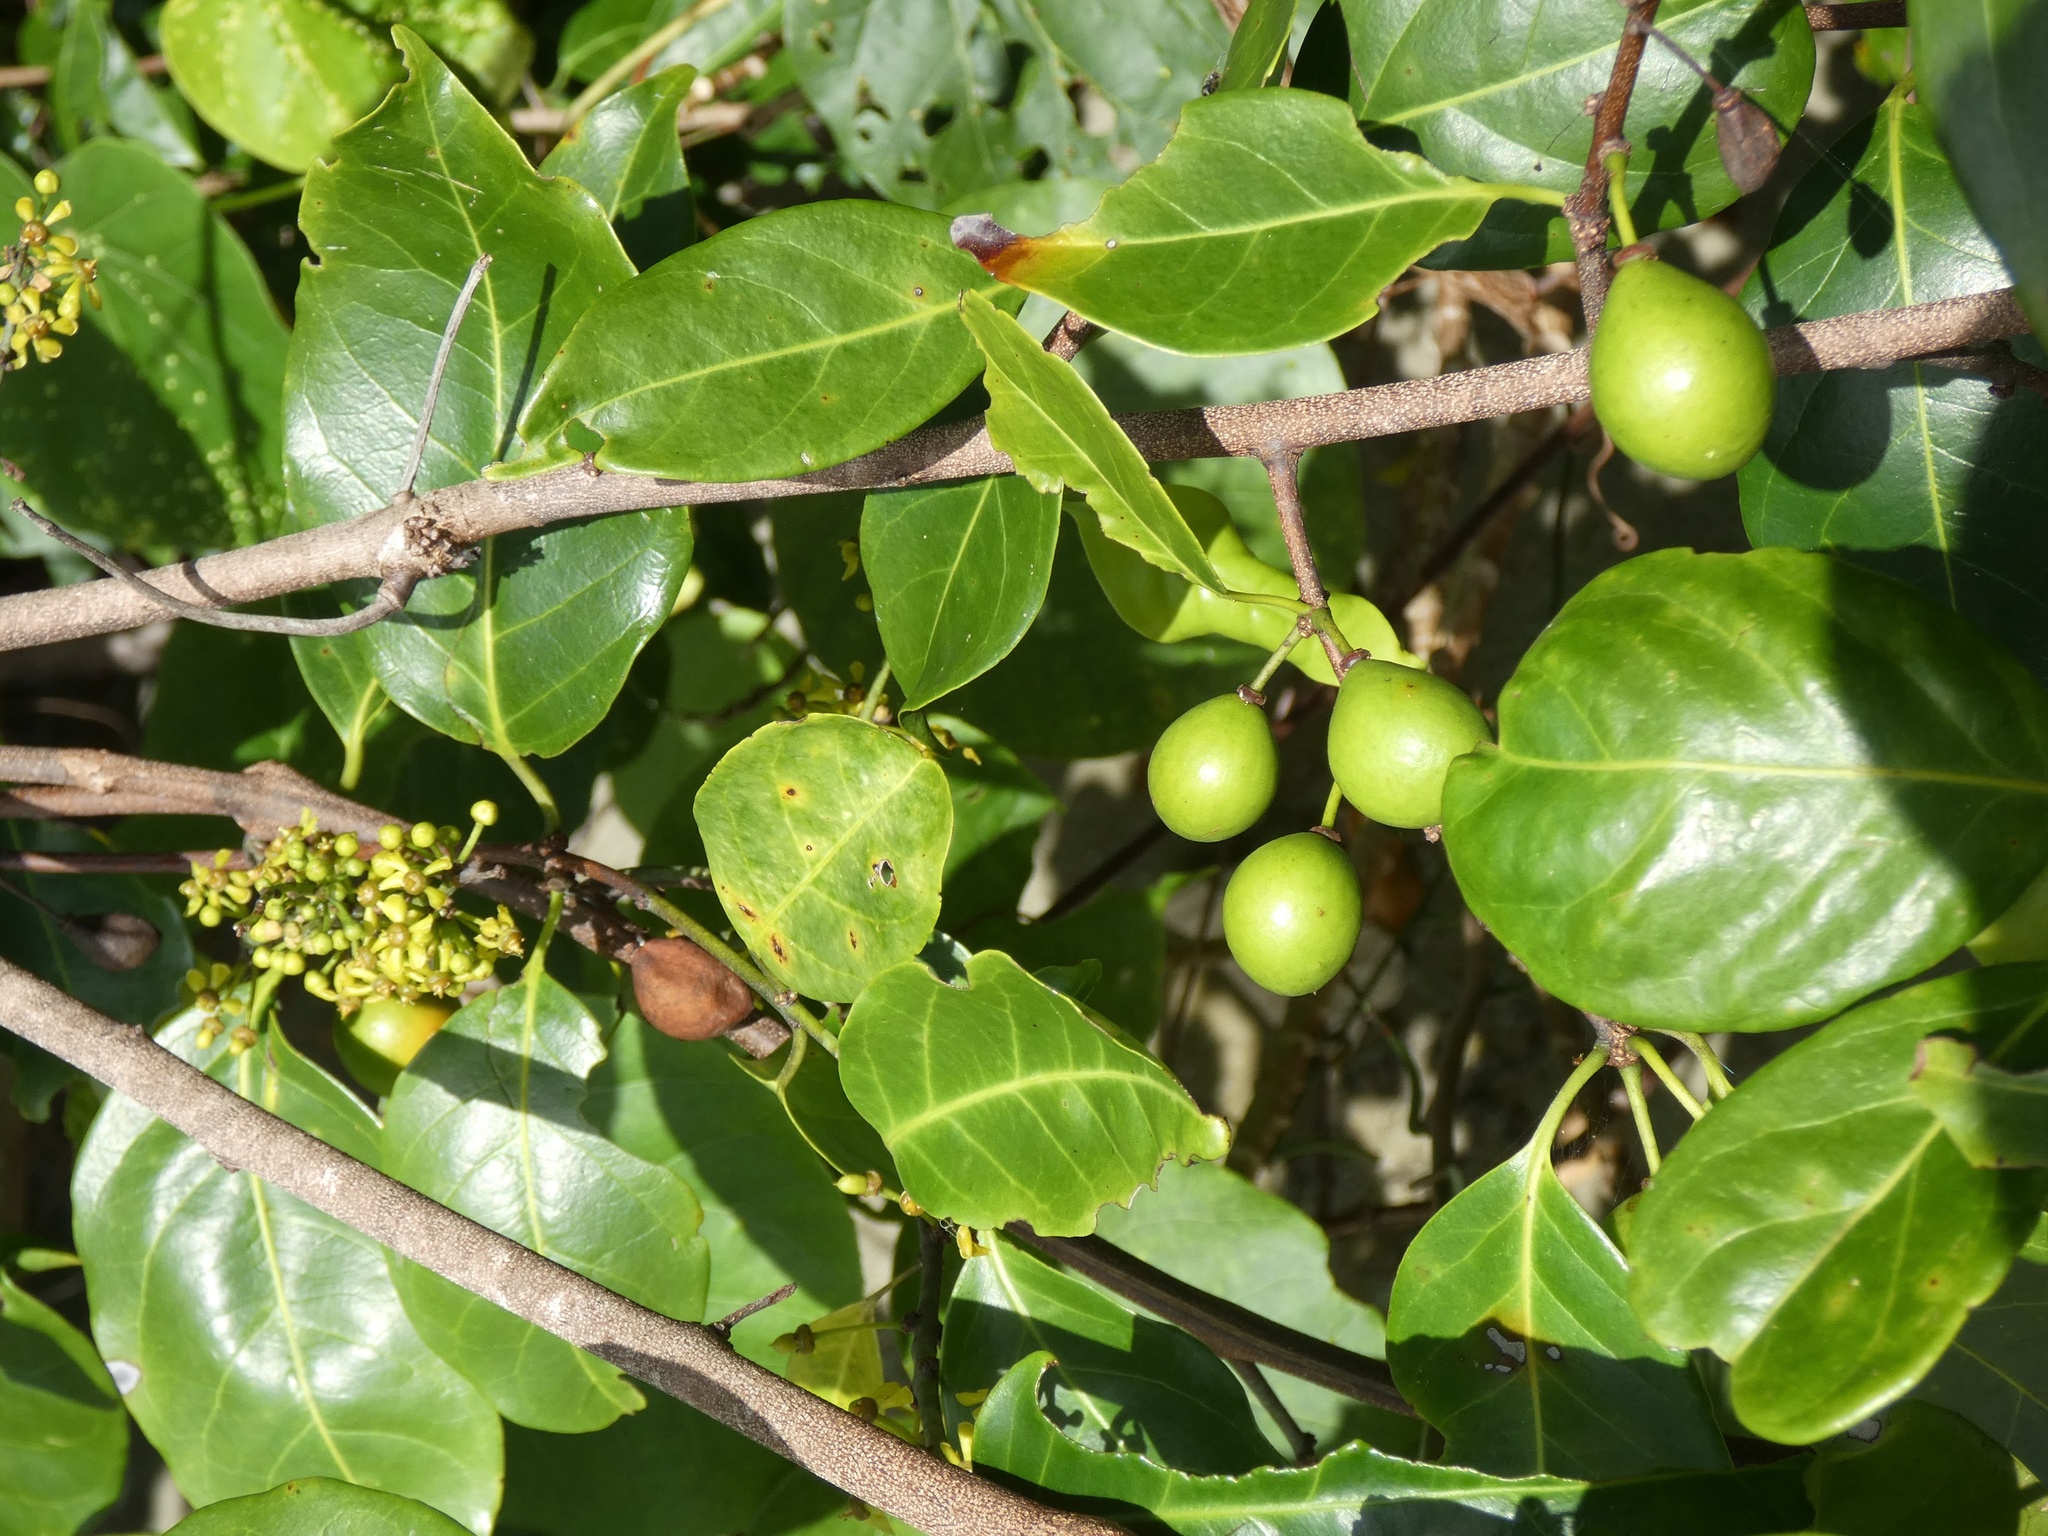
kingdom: Plantae
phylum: Tracheophyta
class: Magnoliopsida
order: Celastrales
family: Celastraceae
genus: Salacia
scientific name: Salacia chinensis
